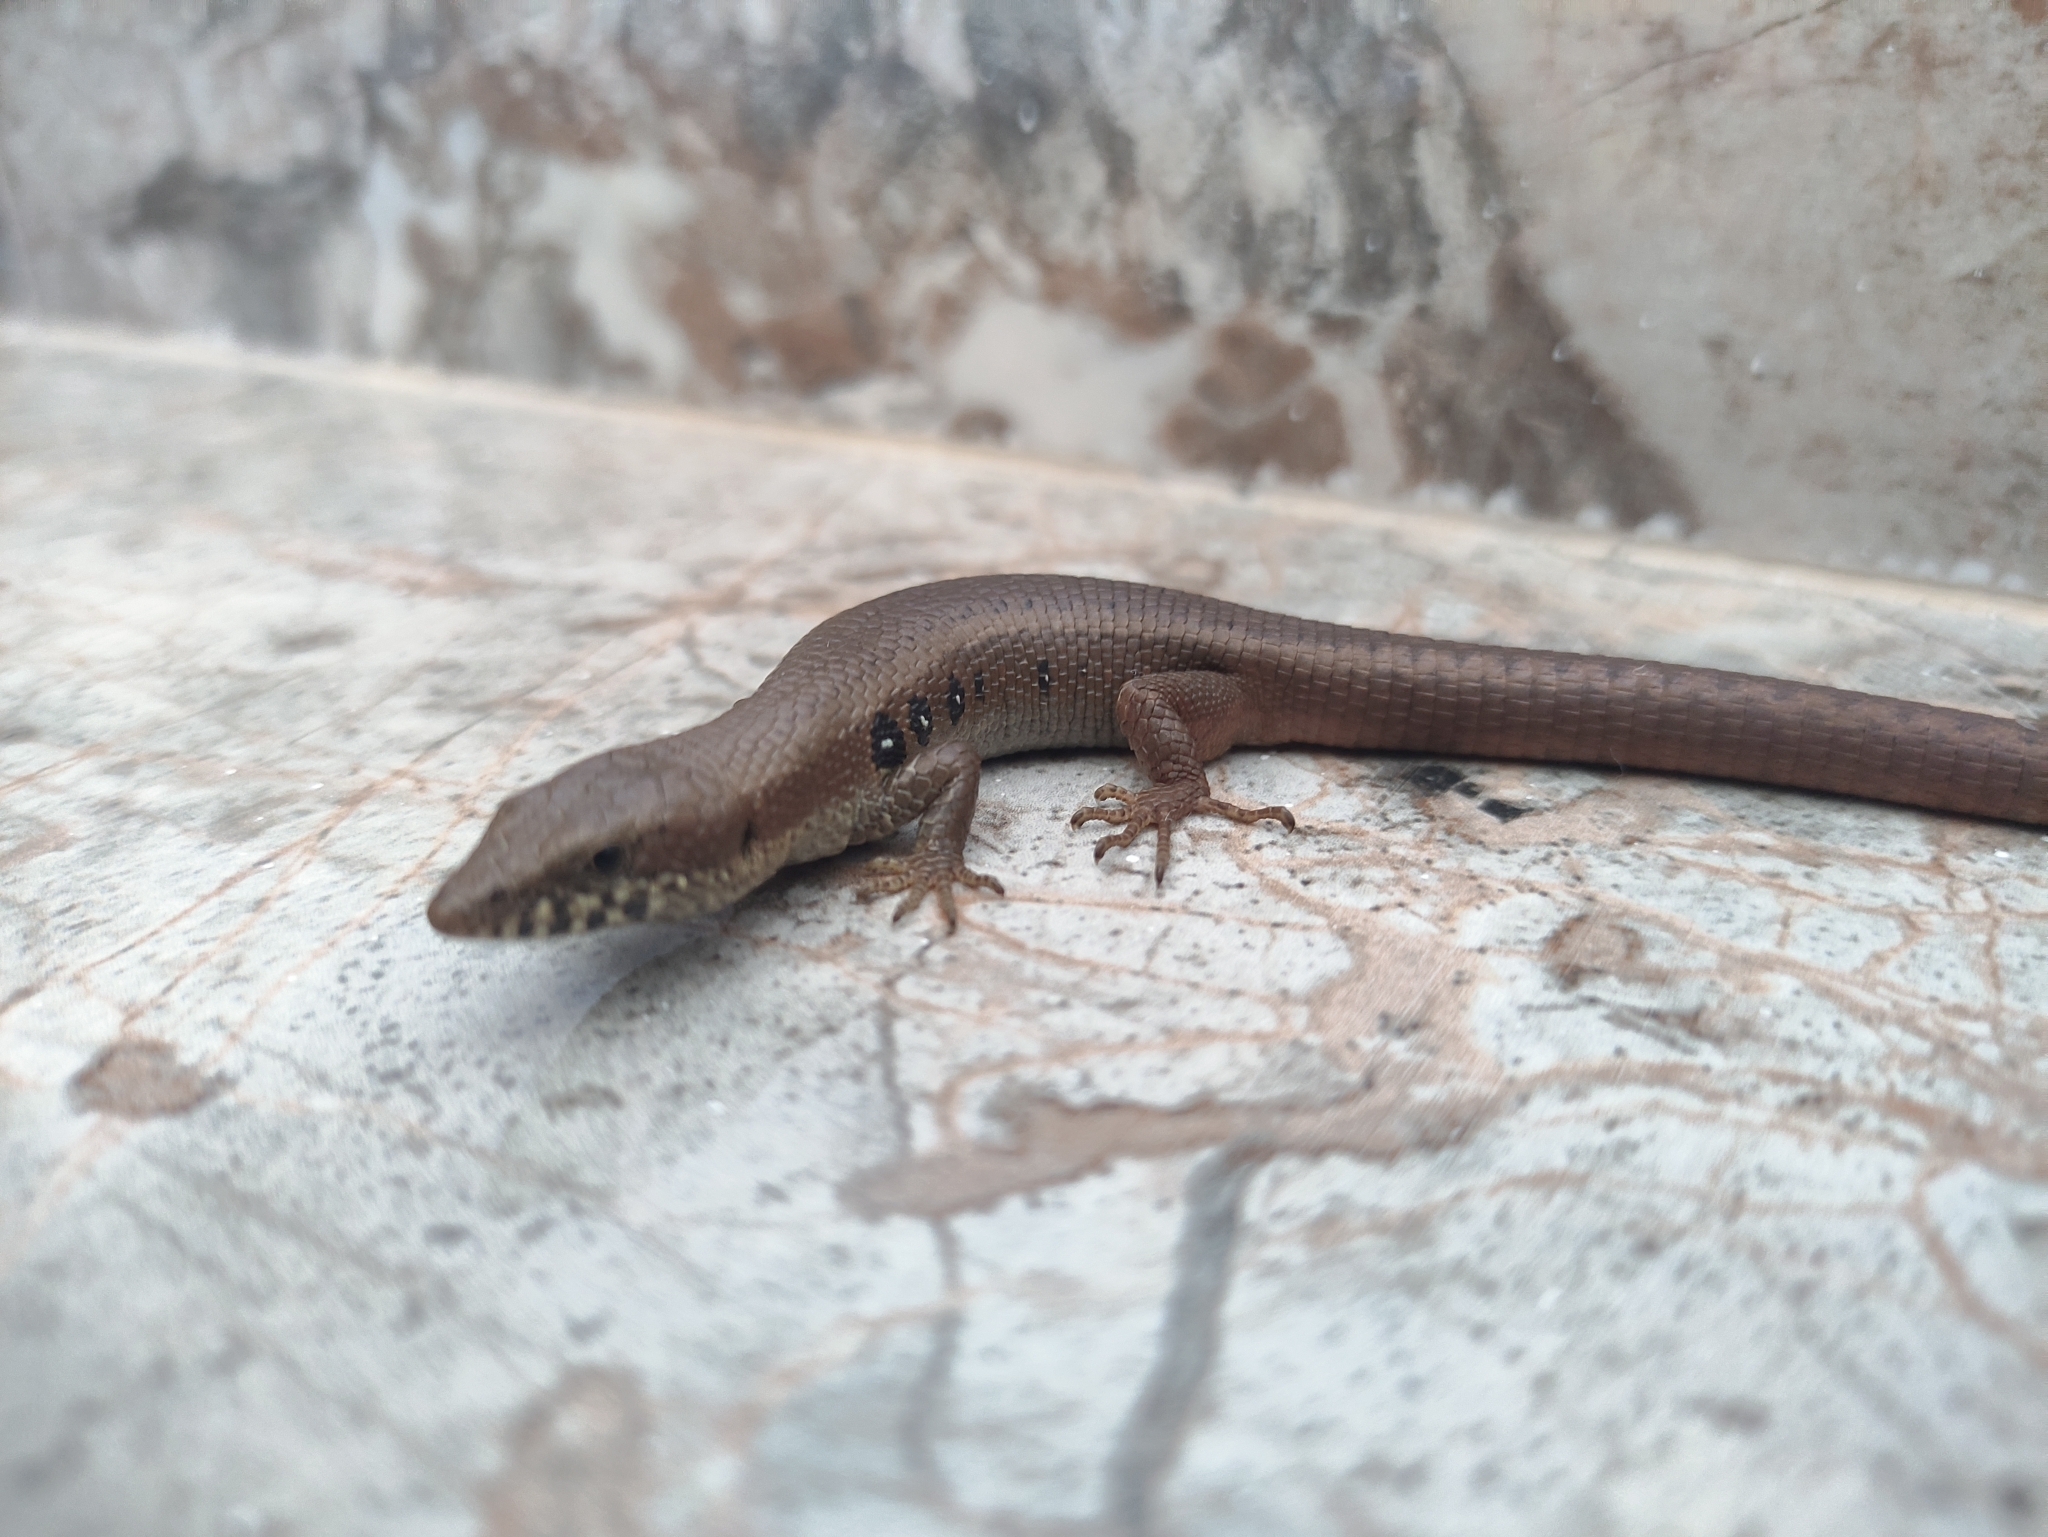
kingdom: Animalia
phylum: Chordata
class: Squamata
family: Gymnophthalmidae
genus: Anadia
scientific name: Anadia rhombifera
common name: Rhombifer anadia
